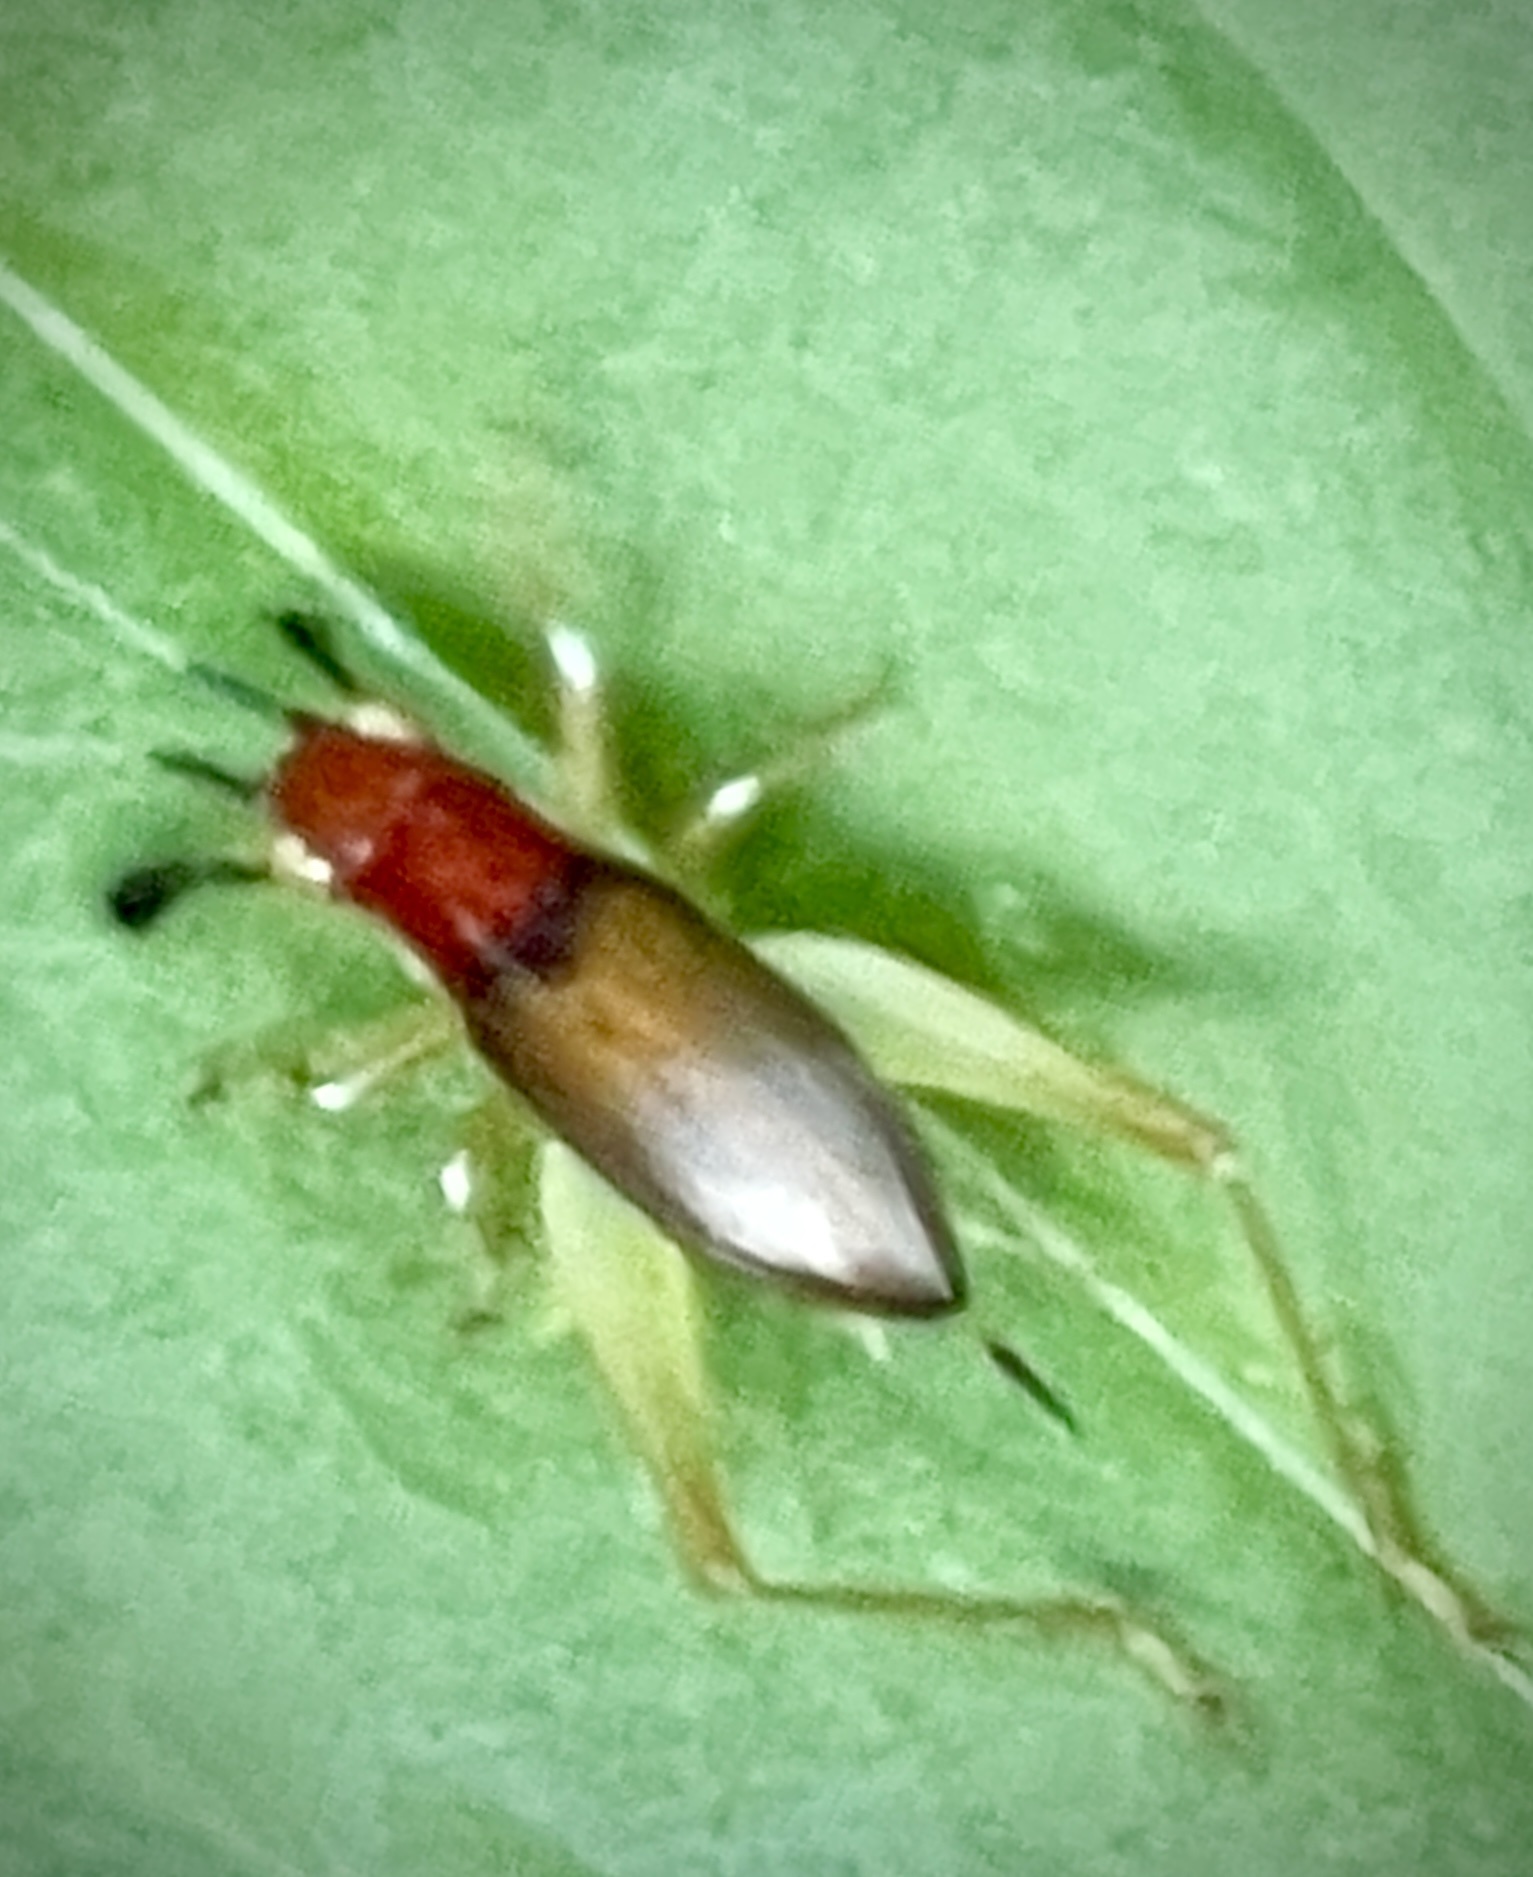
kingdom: Animalia
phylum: Arthropoda
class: Insecta
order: Orthoptera
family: Trigonidiidae
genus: Phyllopalpus
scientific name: Phyllopalpus pulchellus
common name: Handsome trig
